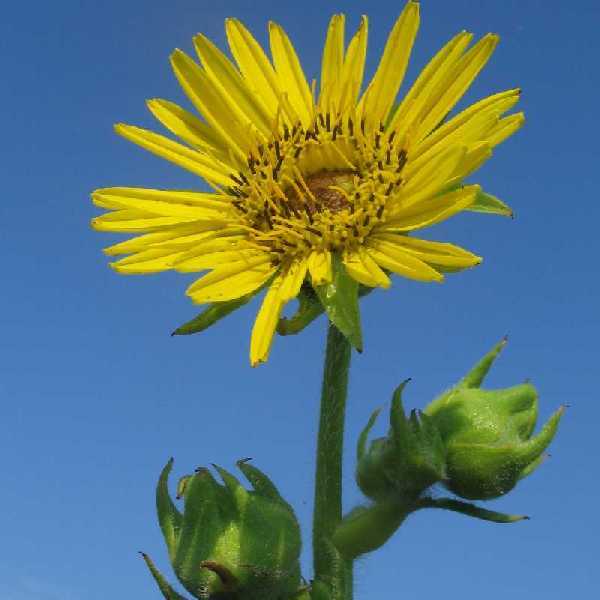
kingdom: Plantae
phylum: Tracheophyta
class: Magnoliopsida
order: Asterales
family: Asteraceae
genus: Silphium
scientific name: Silphium laciniatum
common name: Polarplant
